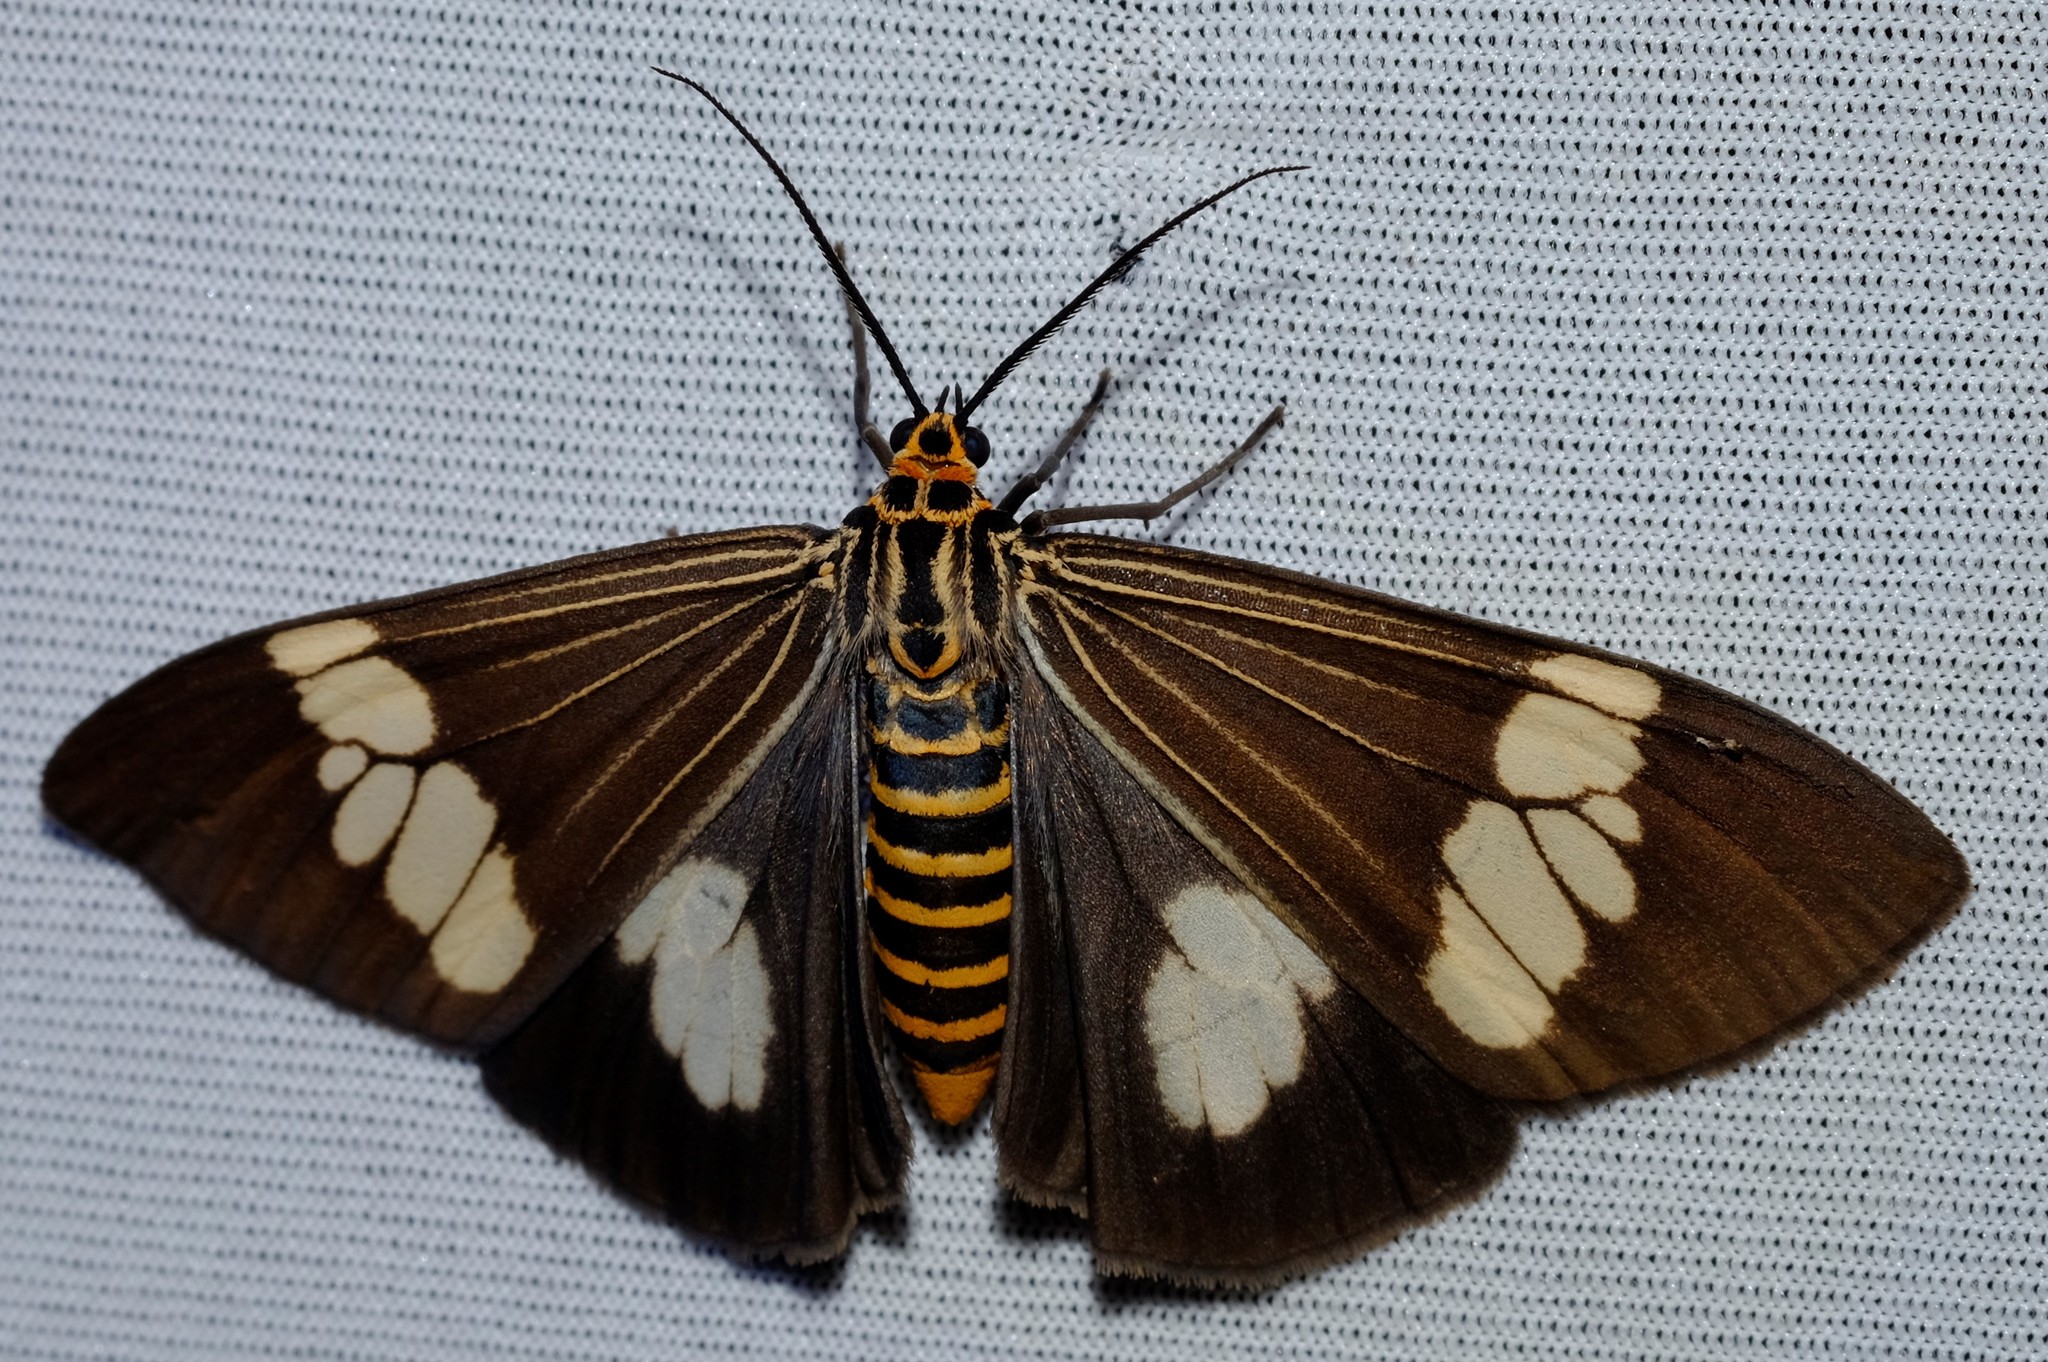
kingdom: Animalia
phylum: Arthropoda
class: Insecta
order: Lepidoptera
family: Erebidae
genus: Nyctemera
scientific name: Nyctemera baulus
